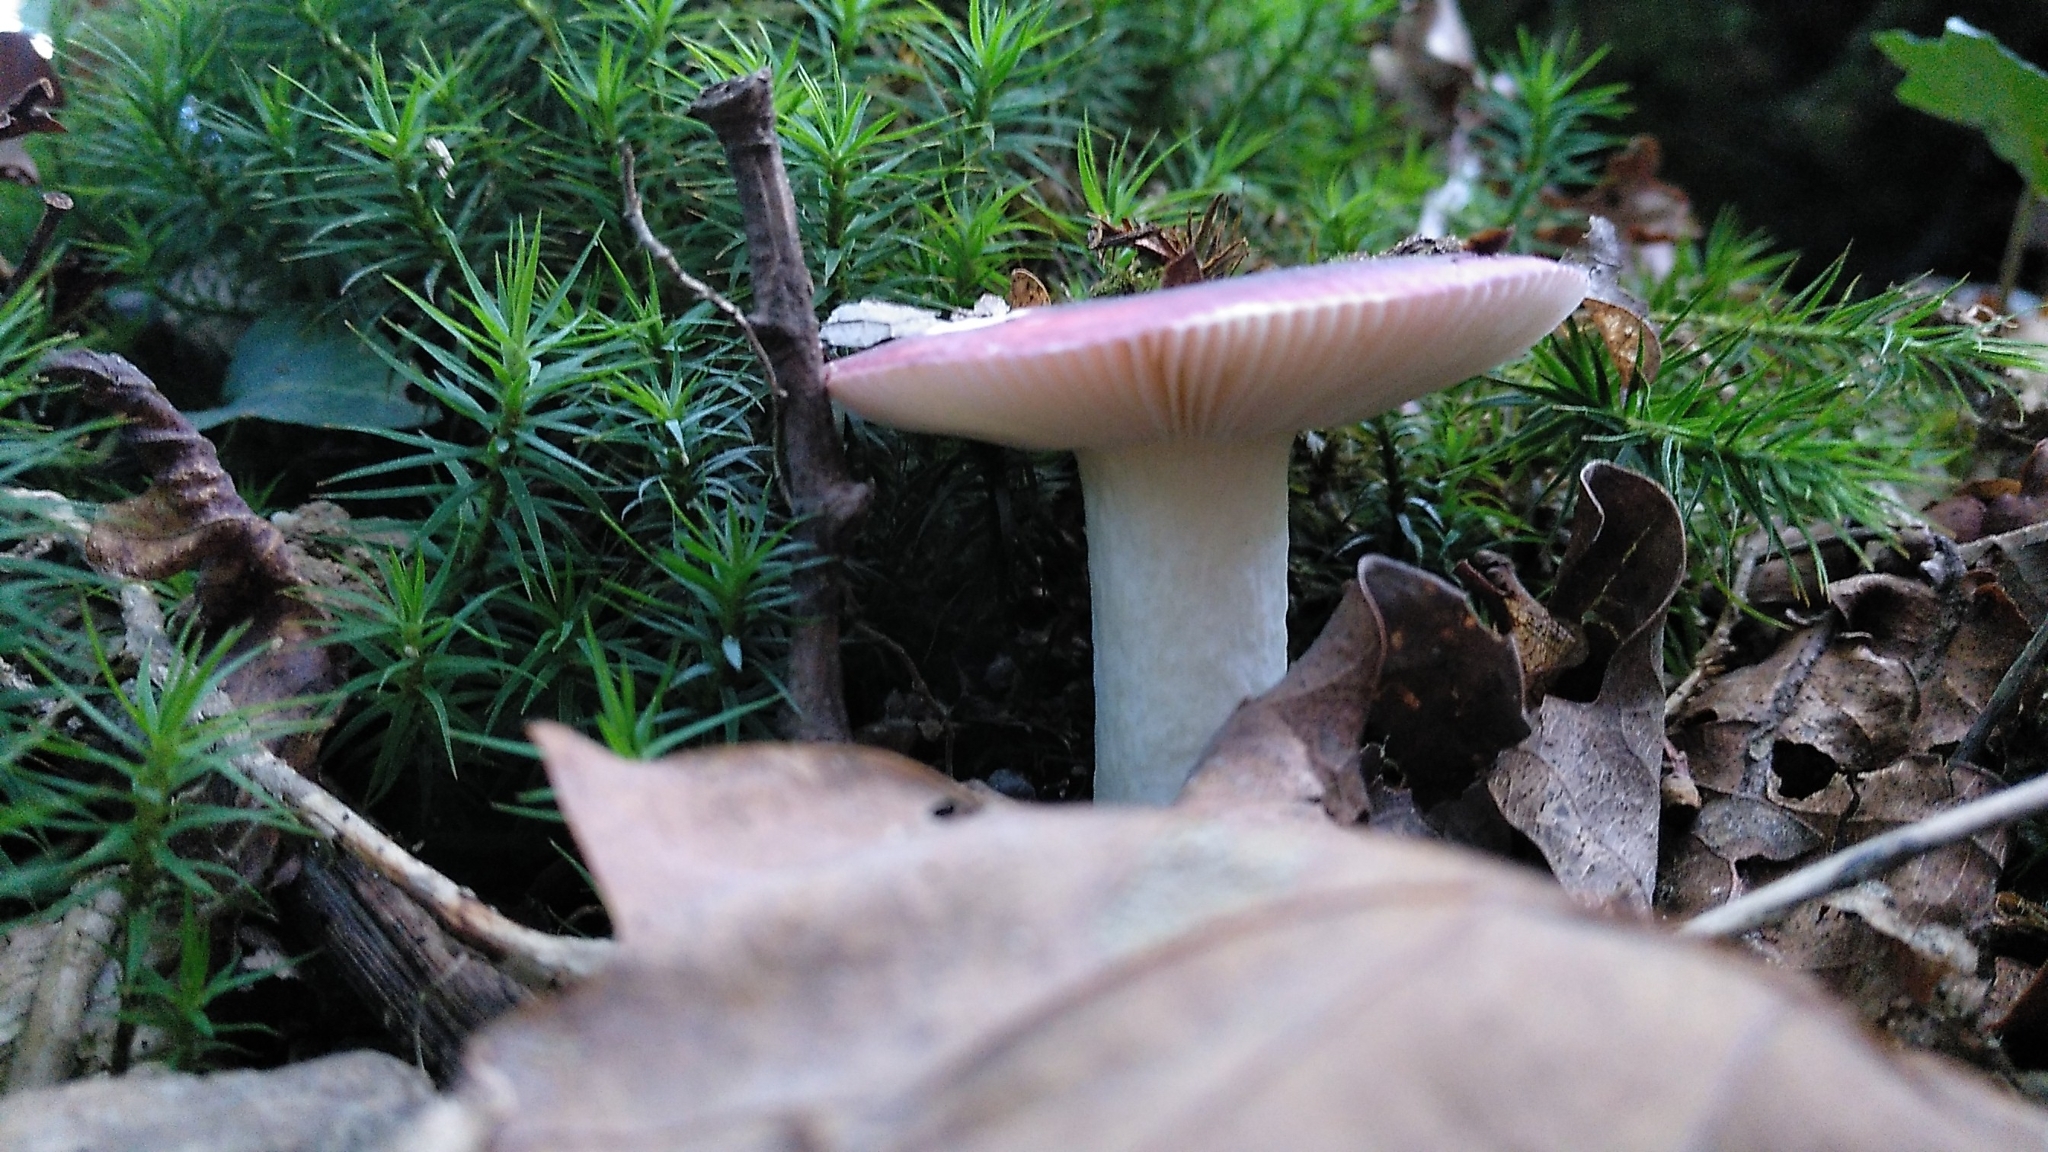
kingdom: Fungi
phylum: Basidiomycota
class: Agaricomycetes
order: Russulales
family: Russulaceae
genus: Russula
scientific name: Russula cyanoxantha
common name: Charcoal burner
